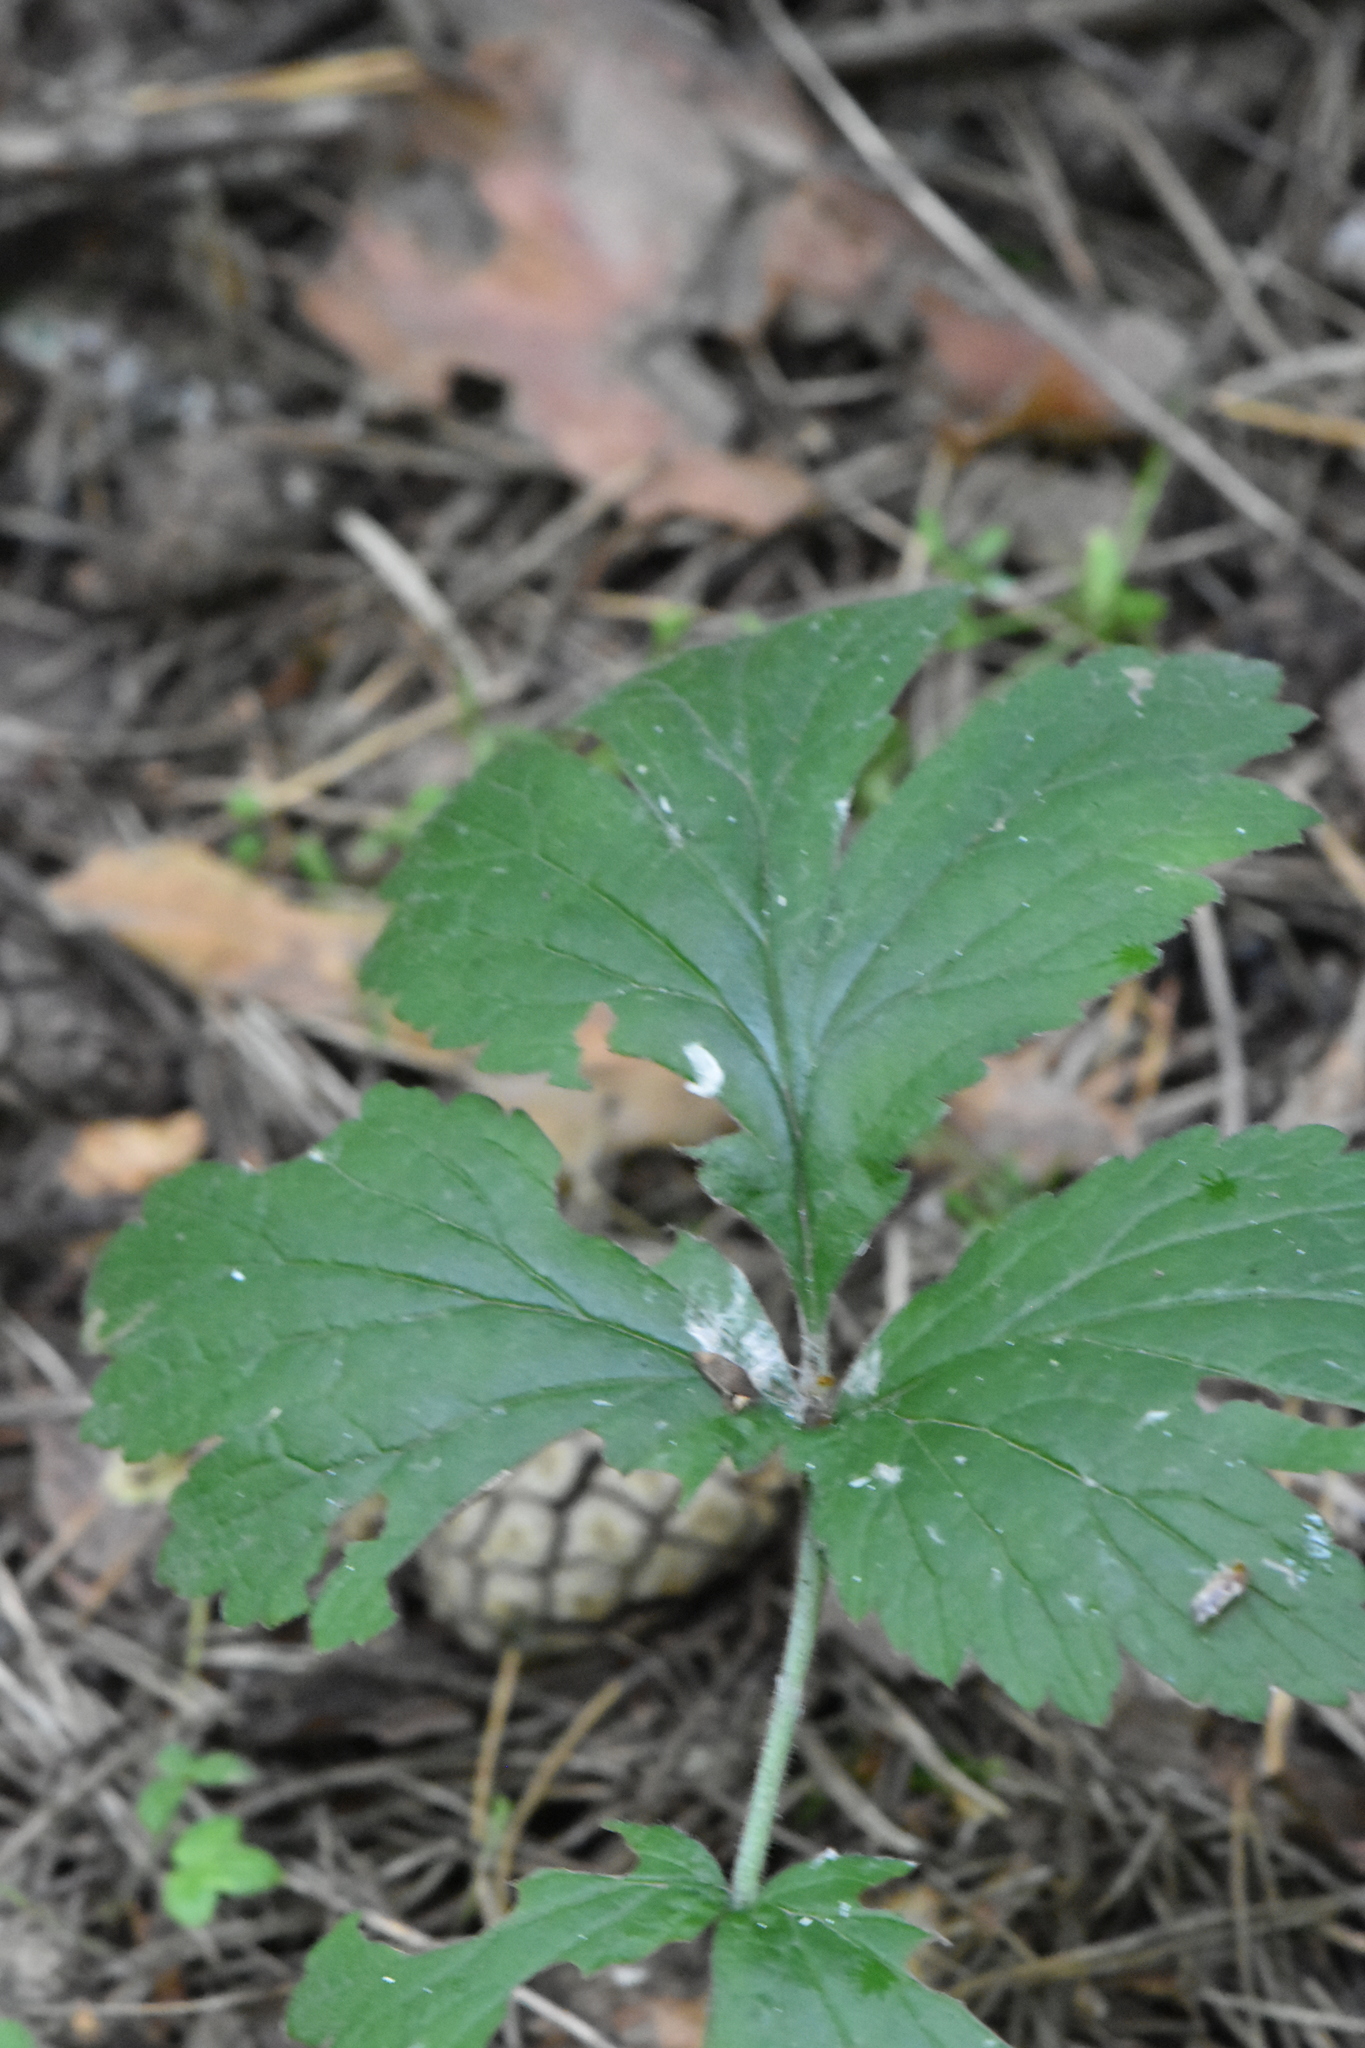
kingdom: Plantae
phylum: Tracheophyta
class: Magnoliopsida
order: Rosales
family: Rosaceae
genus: Geum
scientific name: Geum
